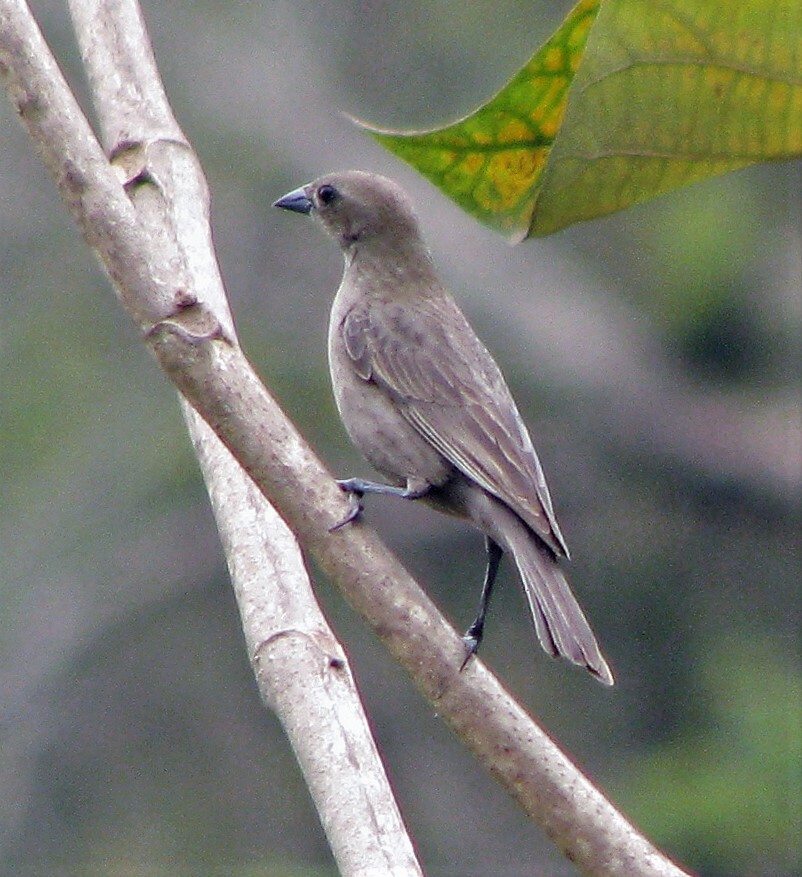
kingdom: Animalia
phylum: Chordata
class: Aves
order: Passeriformes
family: Icteridae
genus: Molothrus
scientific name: Molothrus bonariensis
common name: Shiny cowbird
